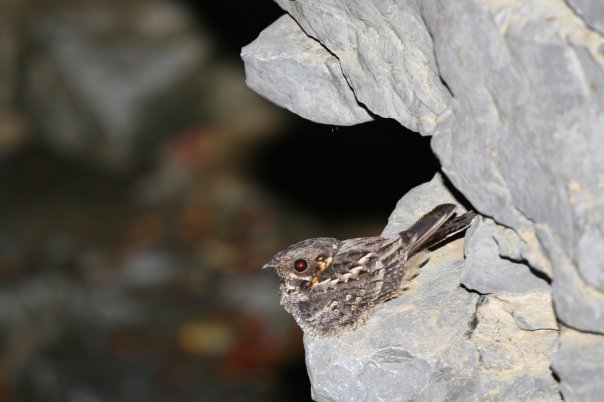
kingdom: Animalia
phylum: Chordata
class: Aves
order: Caprimulgiformes
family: Caprimulgidae
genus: Caprimulgus
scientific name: Caprimulgus madagascariensis
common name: Madagascar nightjar
